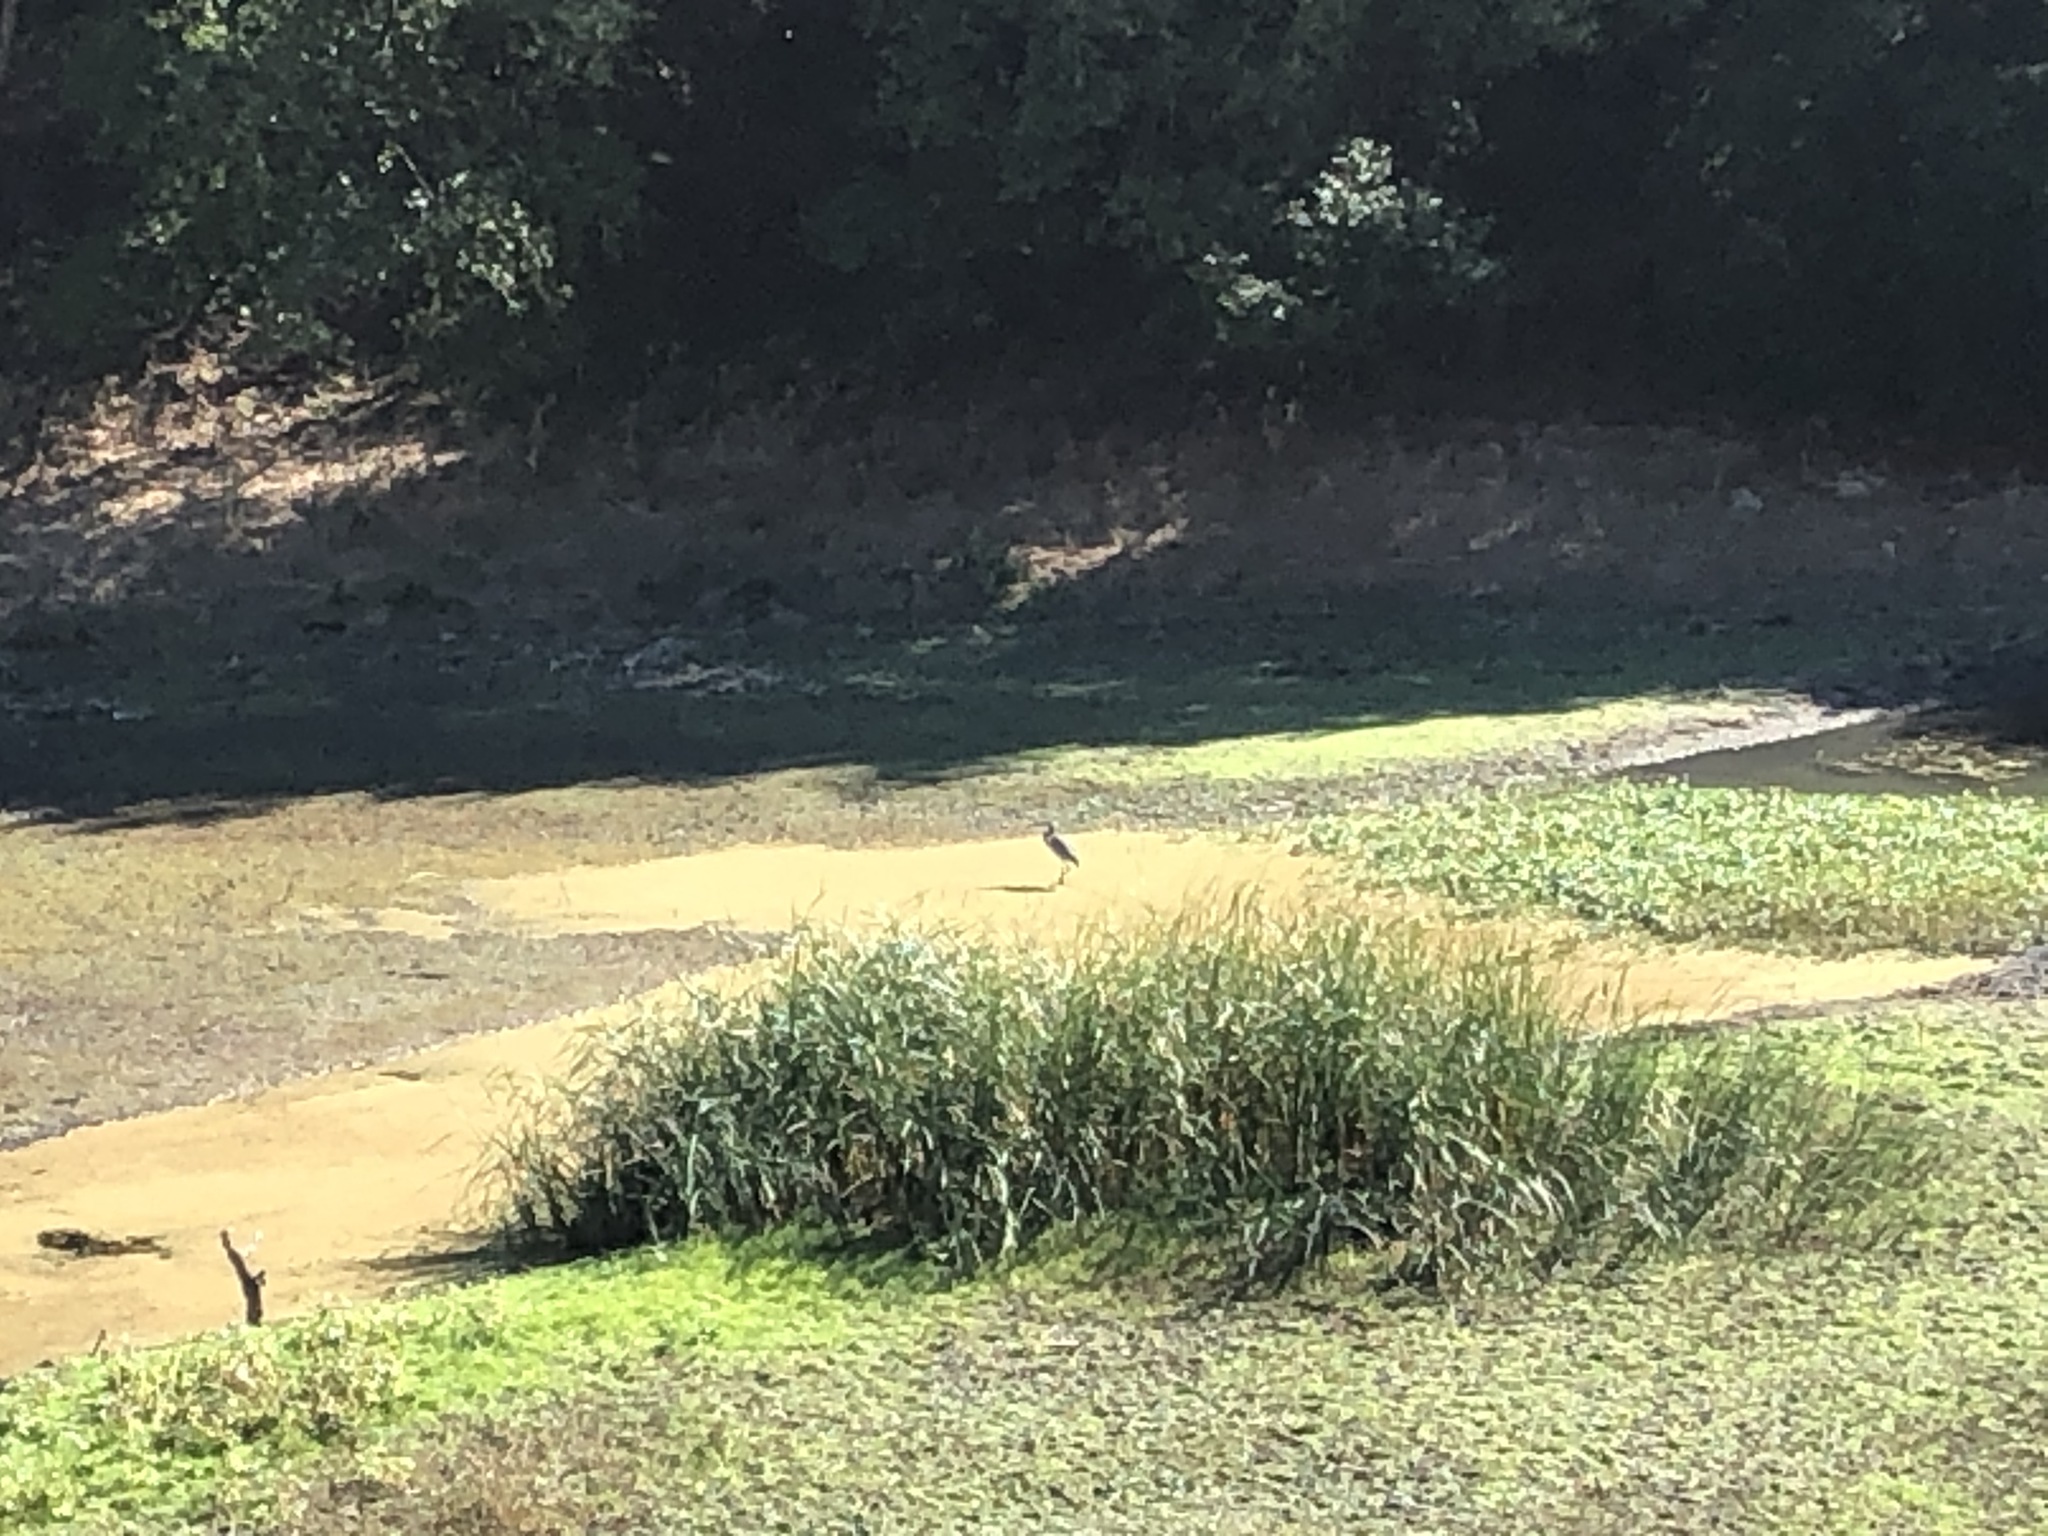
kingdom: Animalia
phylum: Chordata
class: Aves
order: Pelecaniformes
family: Ardeidae
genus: Ardea
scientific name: Ardea herodias
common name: Great blue heron
